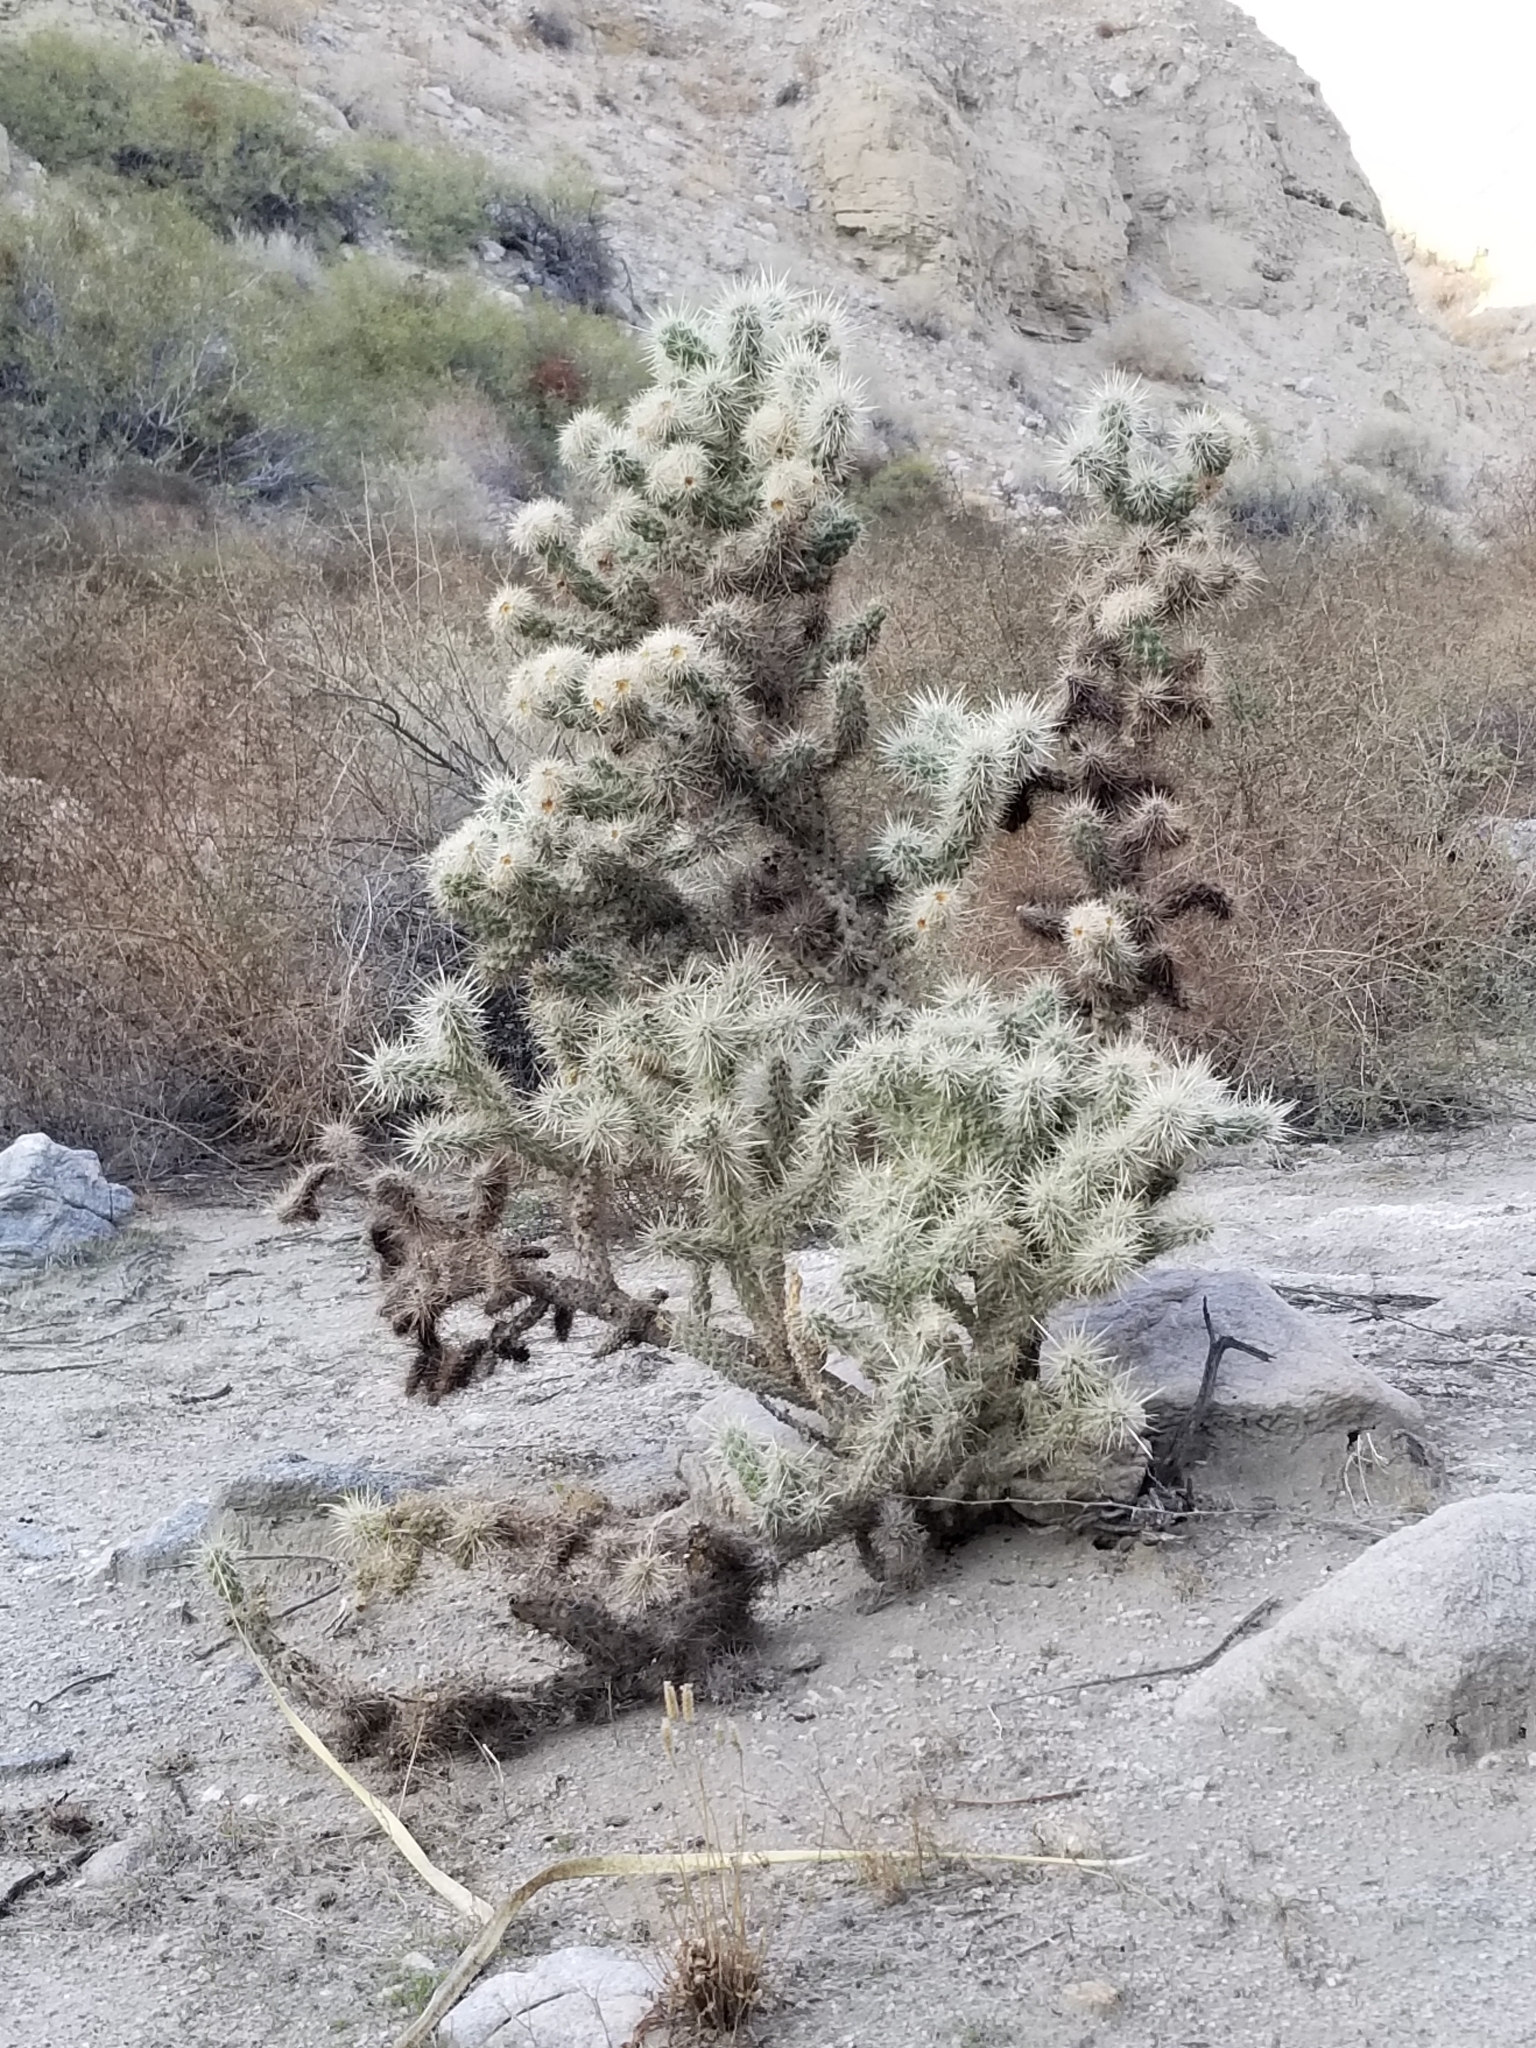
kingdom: Plantae
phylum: Tracheophyta
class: Magnoliopsida
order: Caryophyllales
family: Cactaceae
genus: Cylindropuntia
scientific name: Cylindropuntia echinocarpa
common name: Ground cholla
